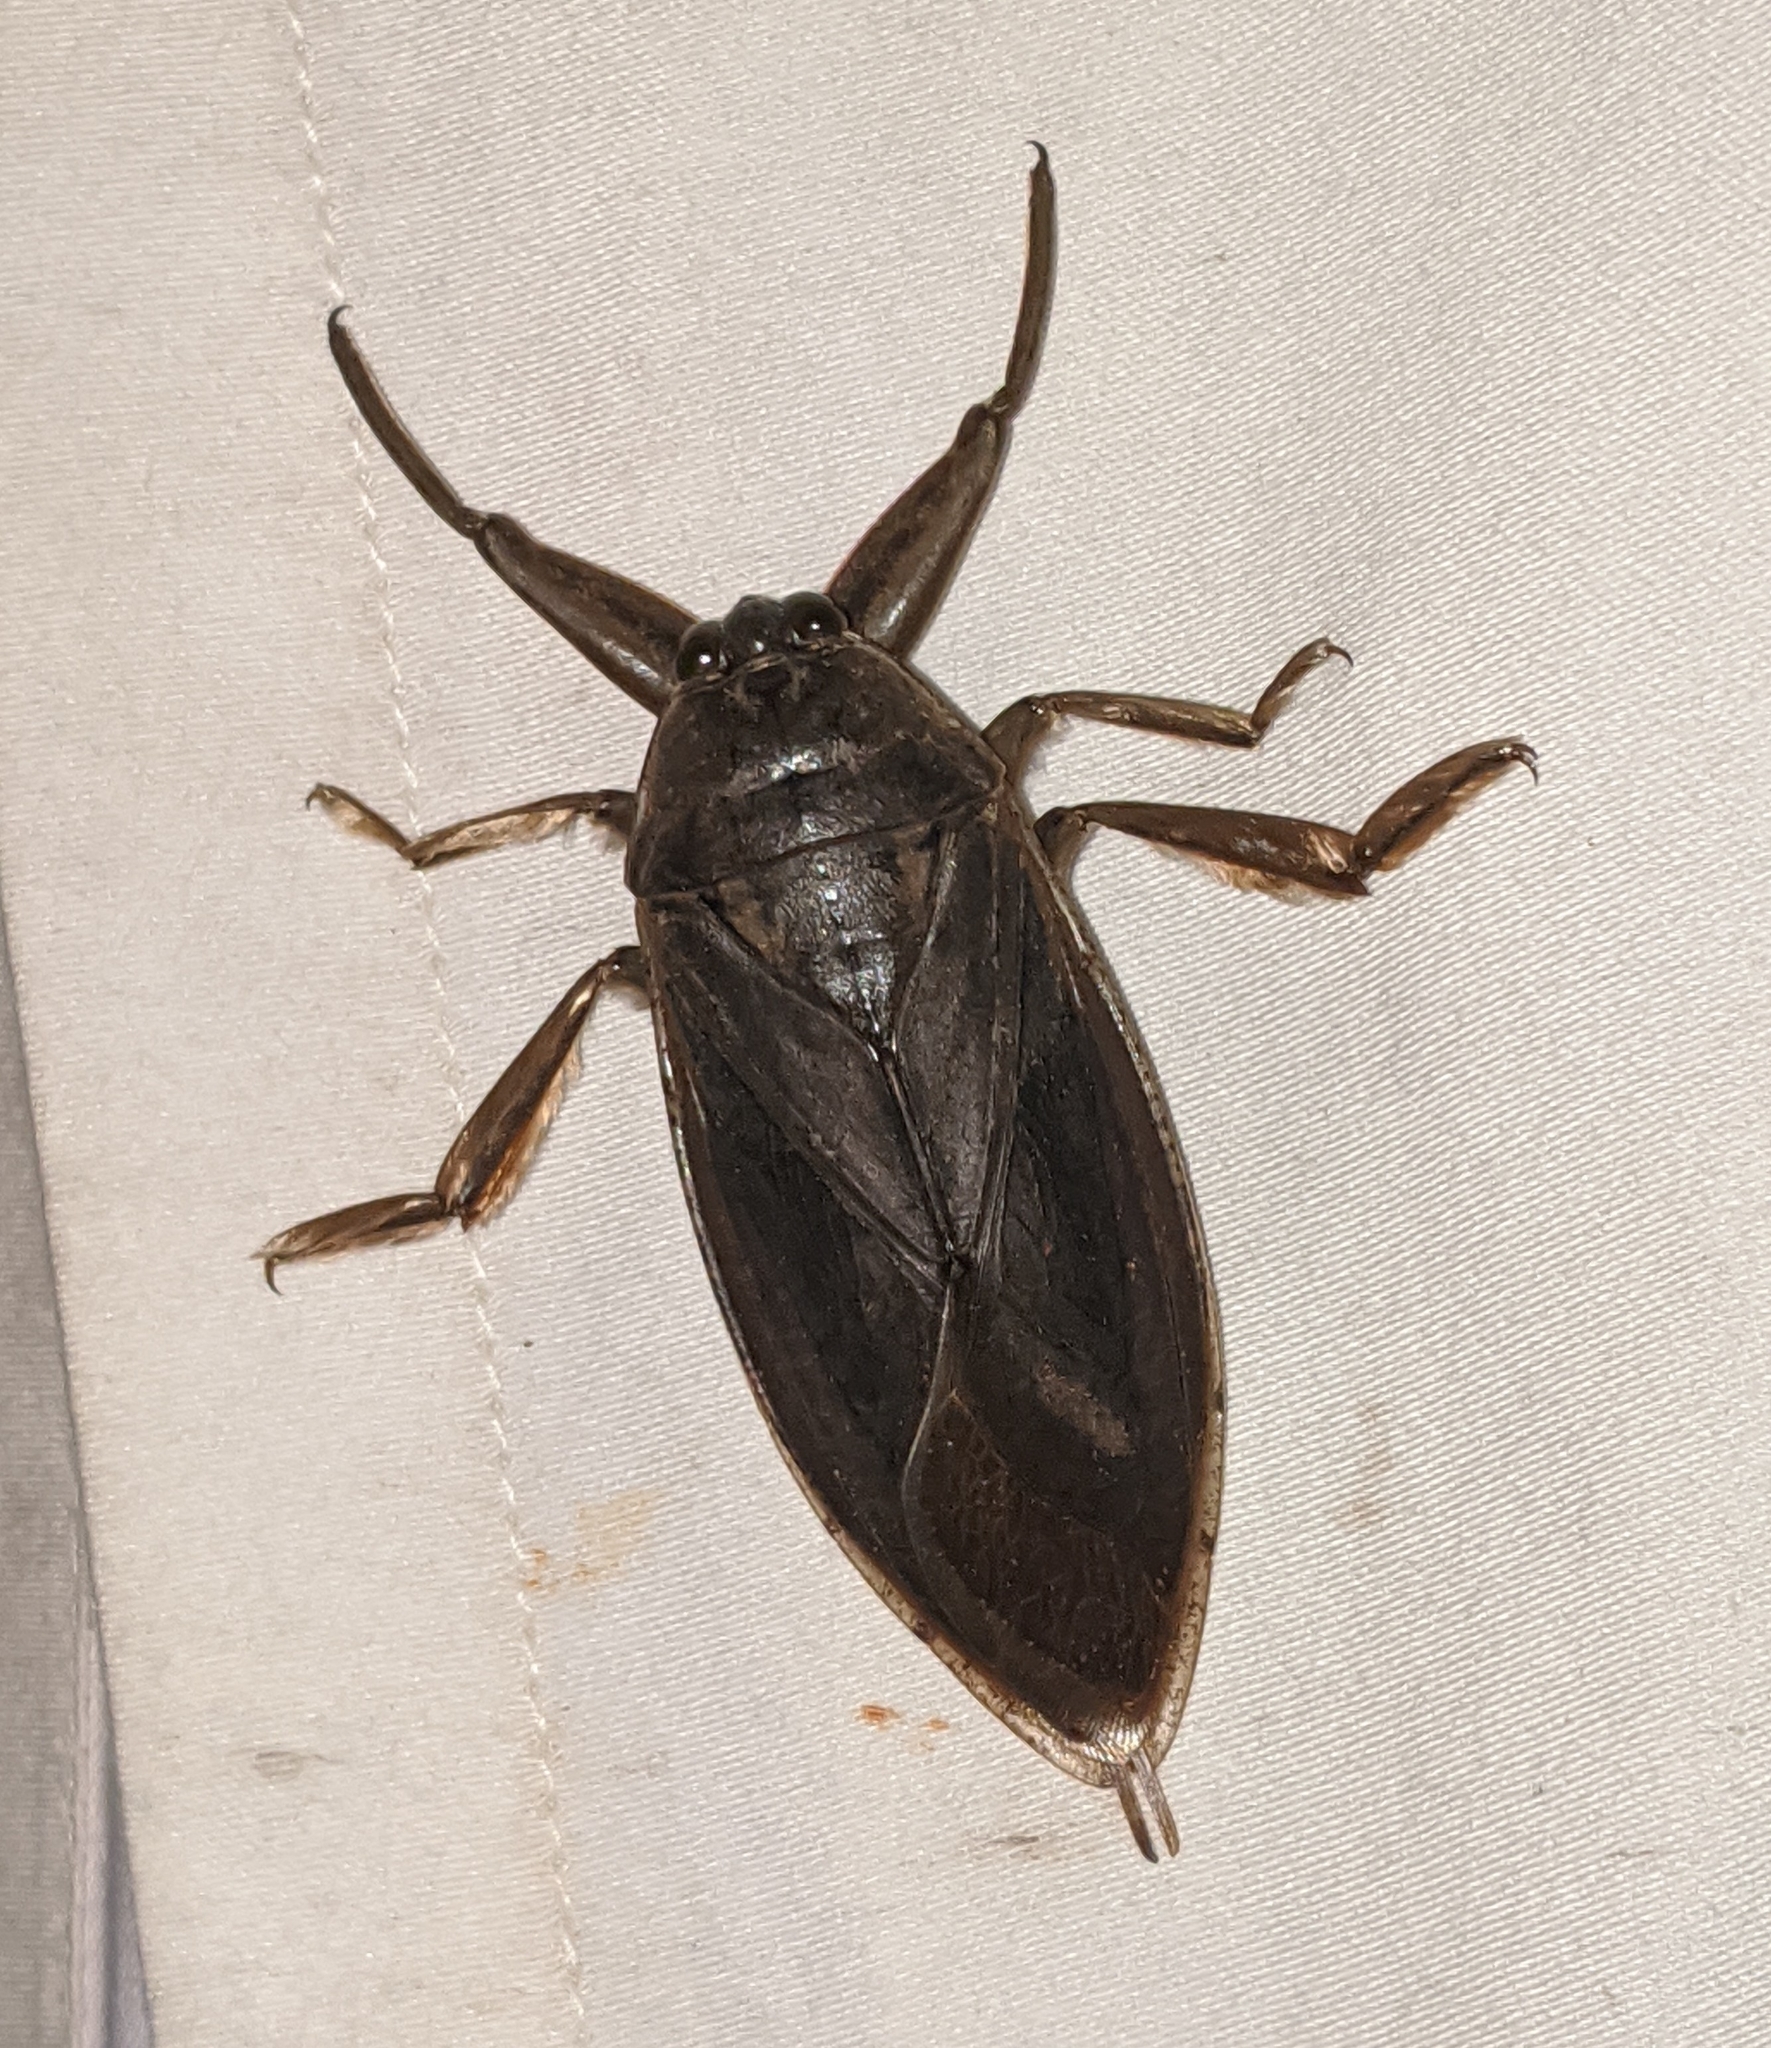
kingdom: Animalia
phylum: Arthropoda
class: Insecta
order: Hemiptera
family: Belostomatidae
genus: Lethocerus
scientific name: Lethocerus americanus
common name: Giant water bug
